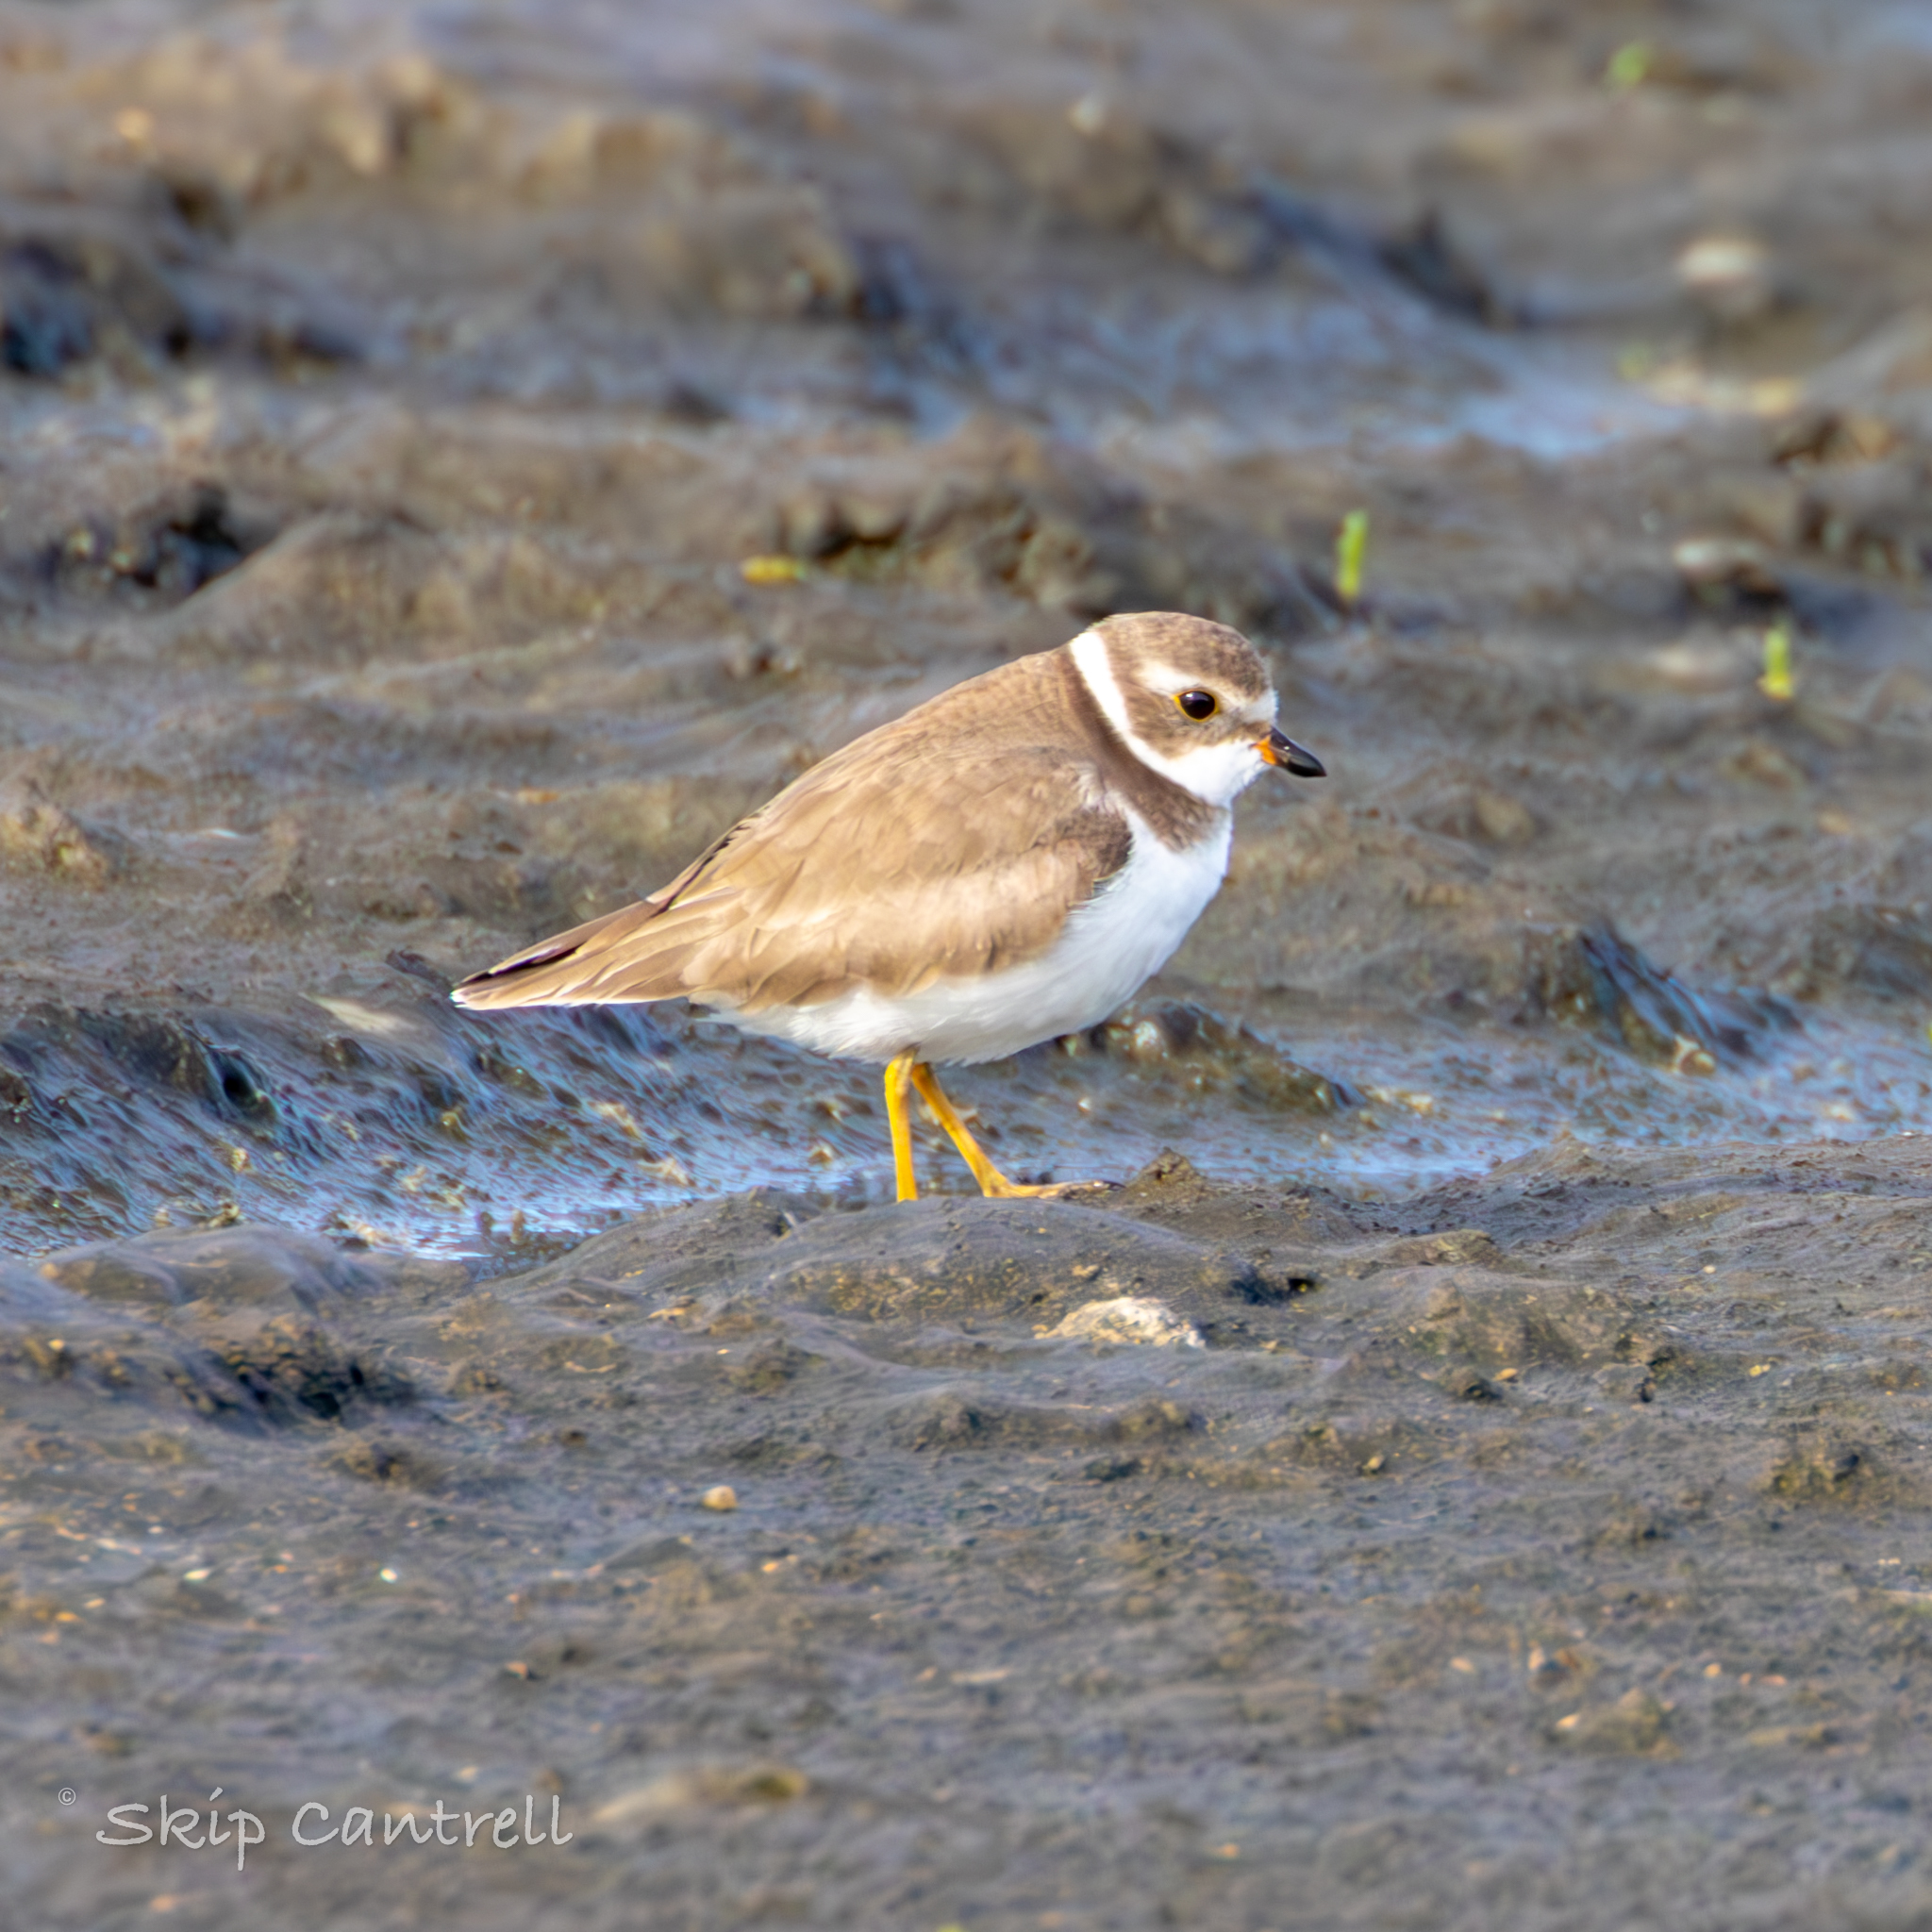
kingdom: Animalia
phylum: Chordata
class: Aves
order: Charadriiformes
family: Charadriidae
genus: Charadrius
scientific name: Charadrius semipalmatus
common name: Semipalmated plover
